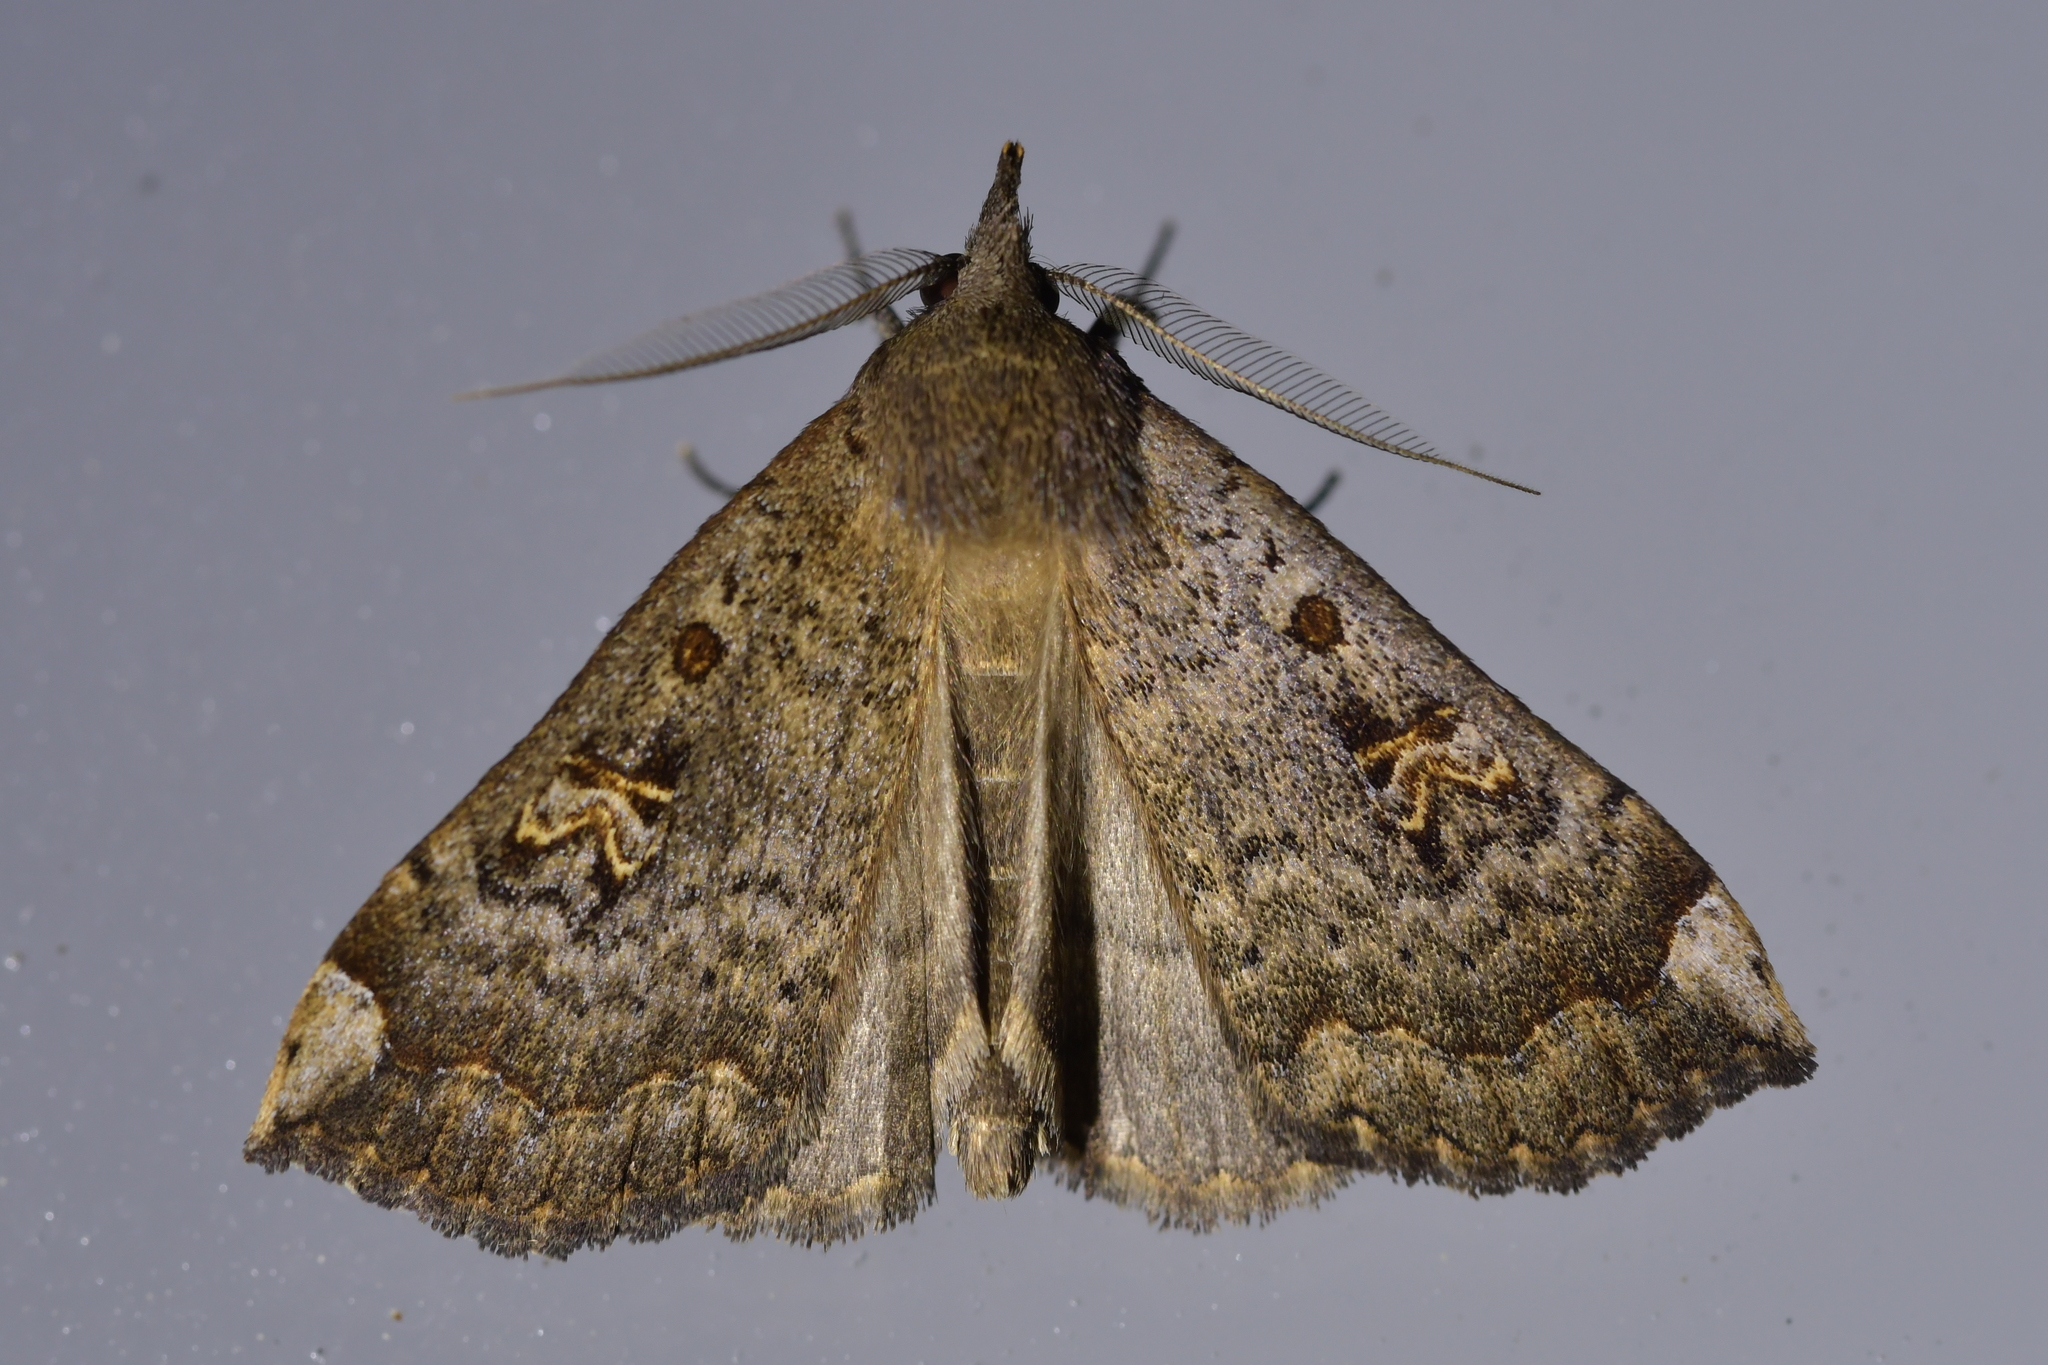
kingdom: Animalia
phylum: Arthropoda
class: Insecta
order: Lepidoptera
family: Erebidae
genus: Rhapsa
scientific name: Rhapsa scotosialis
